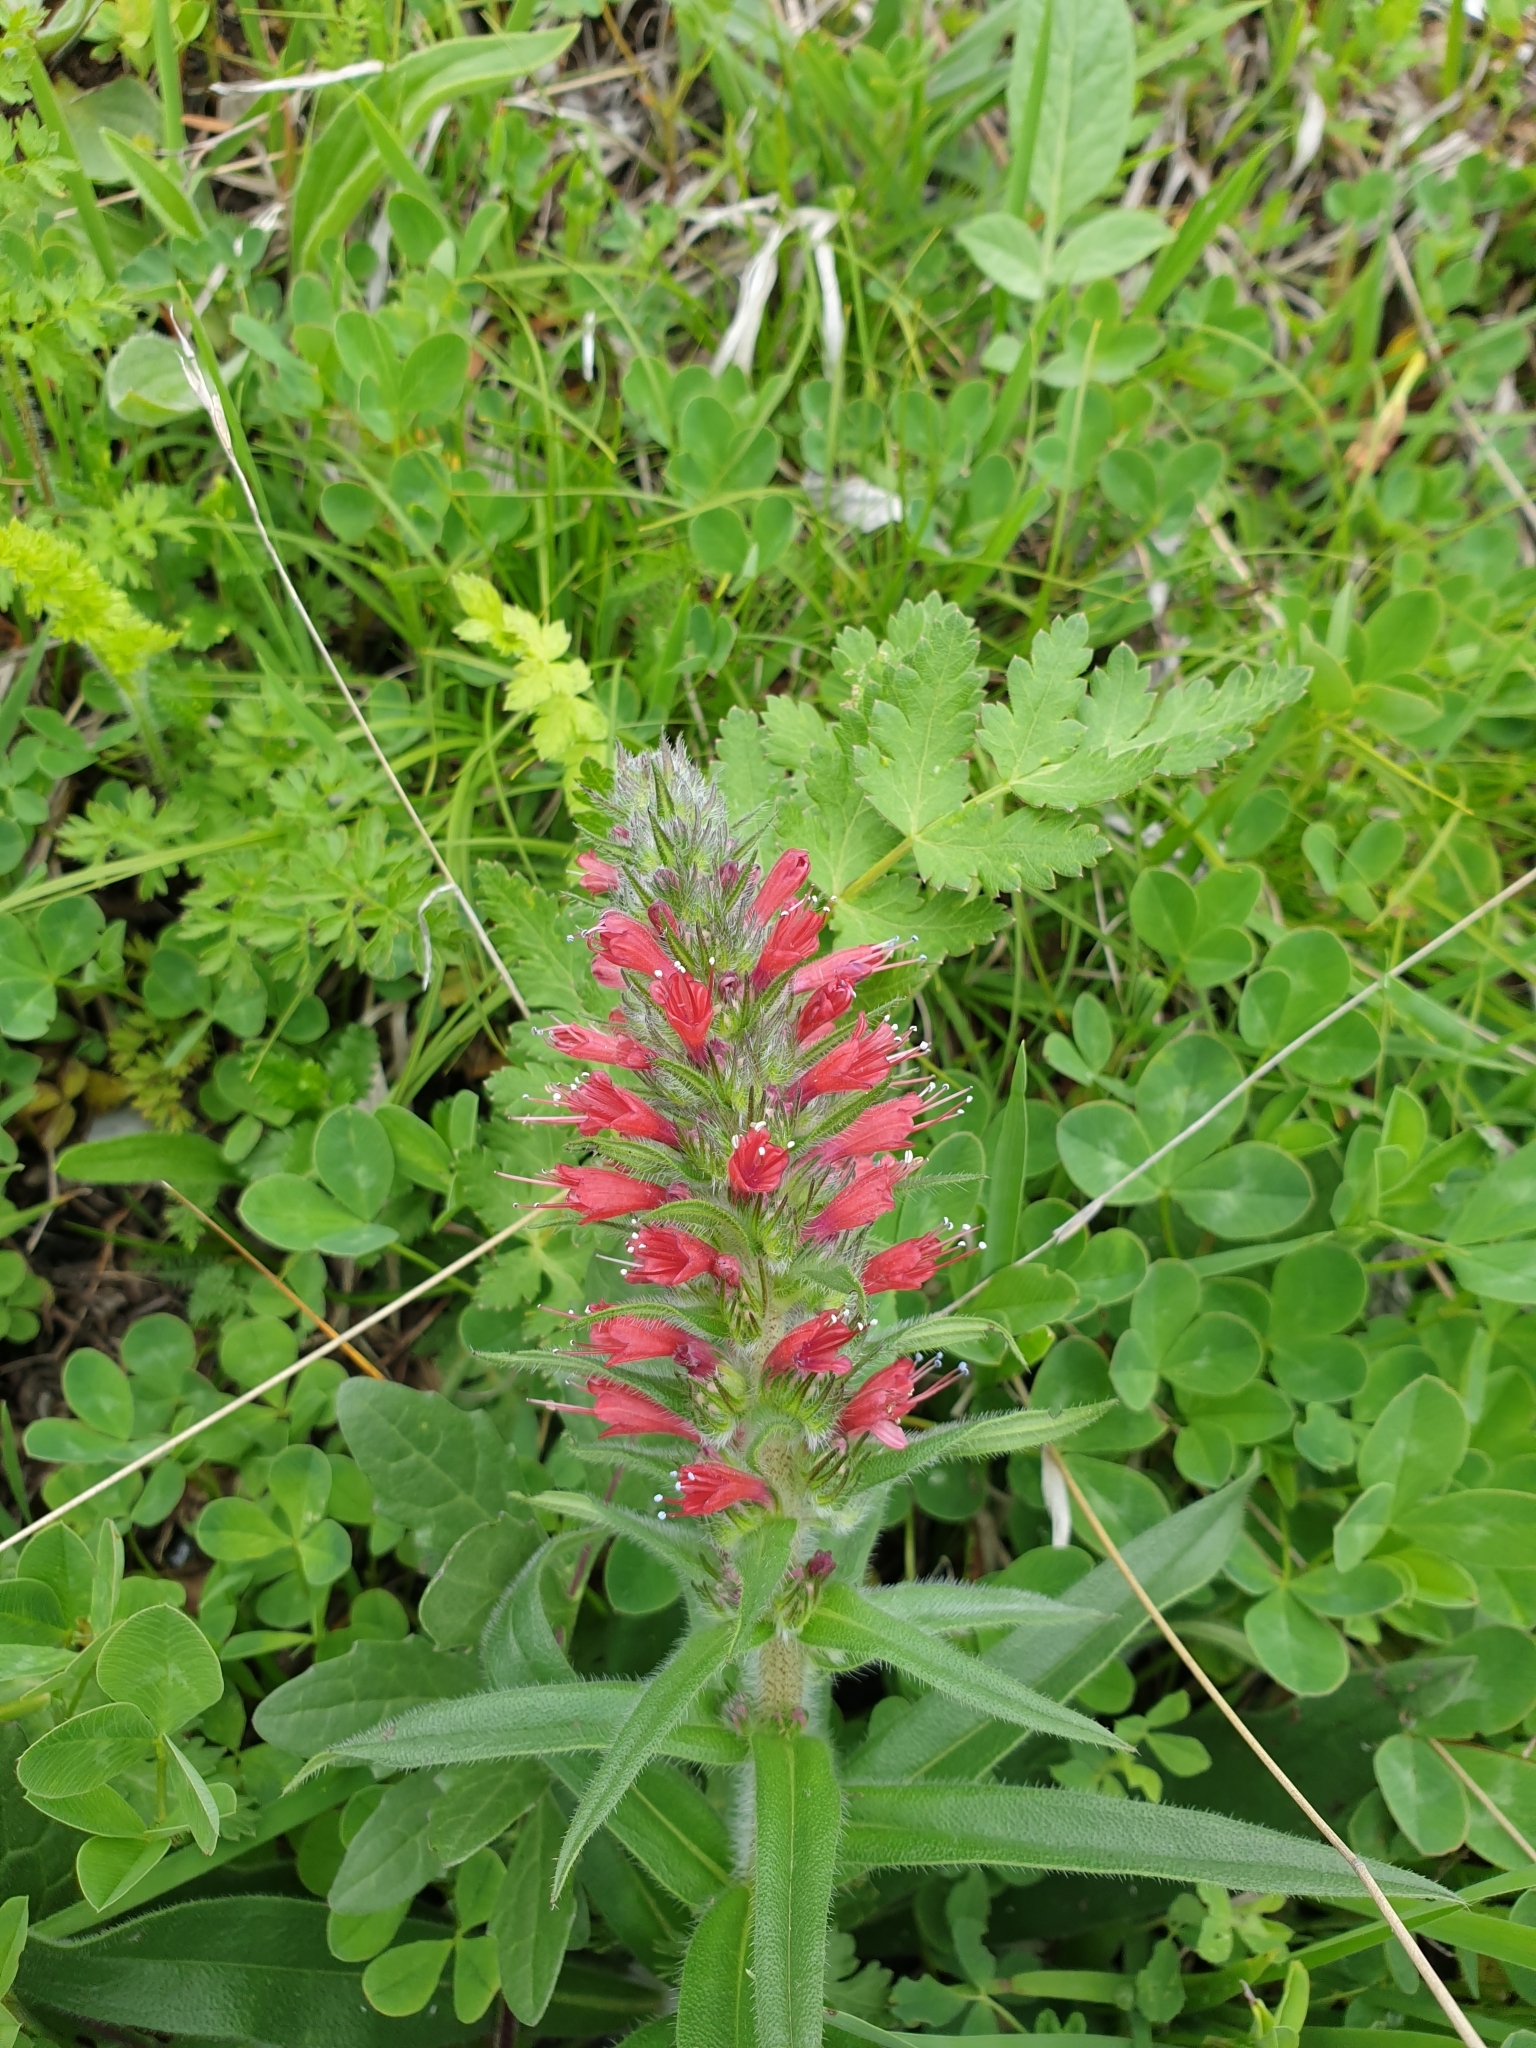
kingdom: Plantae
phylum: Tracheophyta
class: Magnoliopsida
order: Boraginales
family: Boraginaceae
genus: Pontechium
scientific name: Pontechium maculatum
